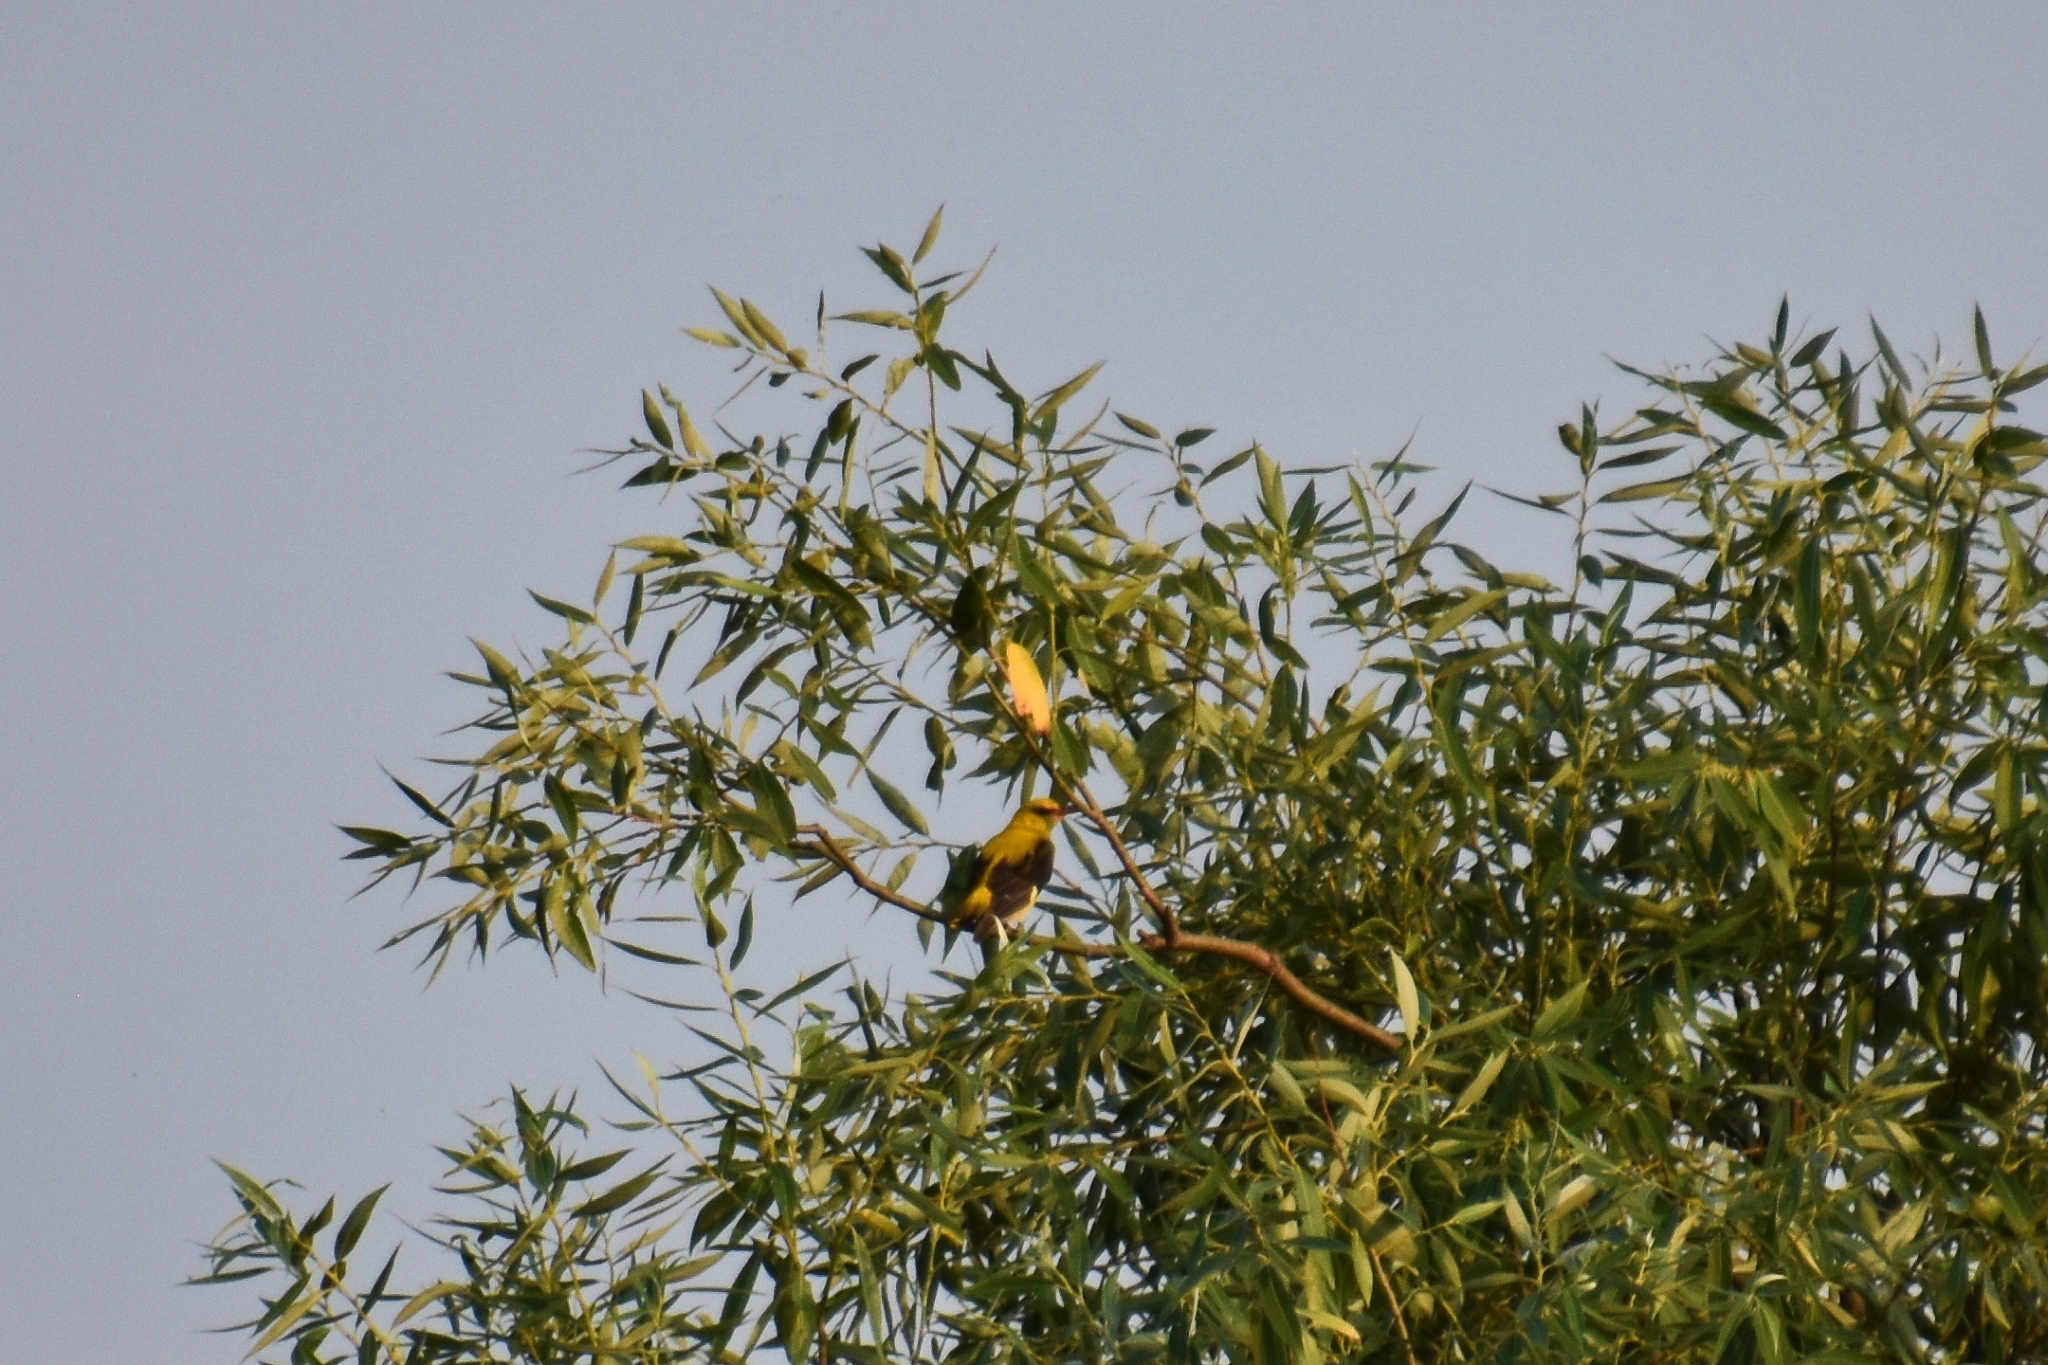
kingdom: Animalia
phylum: Chordata
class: Aves
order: Passeriformes
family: Oriolidae
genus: Oriolus
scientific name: Oriolus oriolus
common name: Eurasian golden oriole
